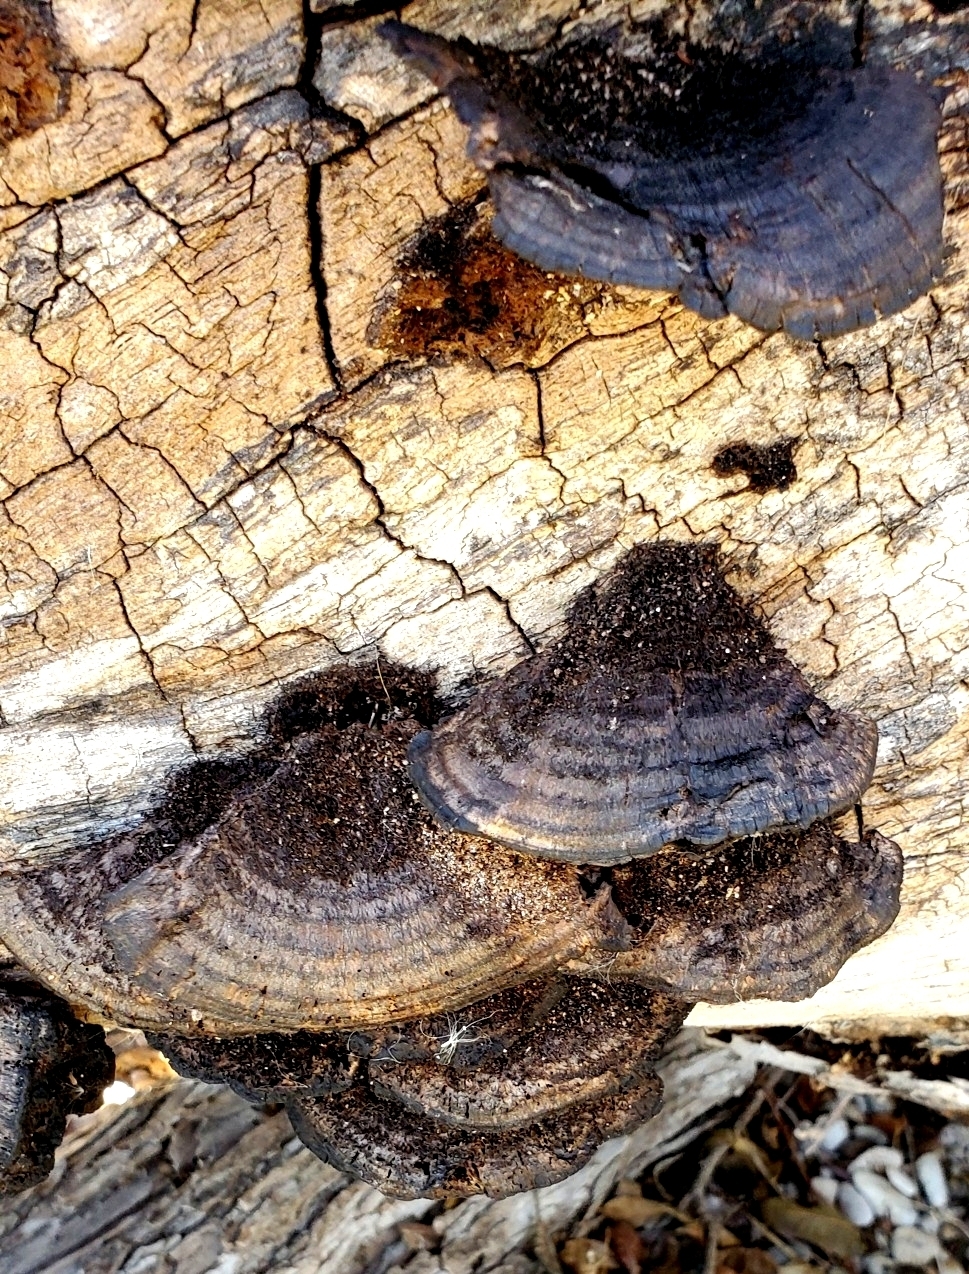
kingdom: Fungi
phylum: Basidiomycota
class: Agaricomycetes
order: Polyporales
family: Cerrenaceae
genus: Cerrena
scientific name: Cerrena hydnoides
